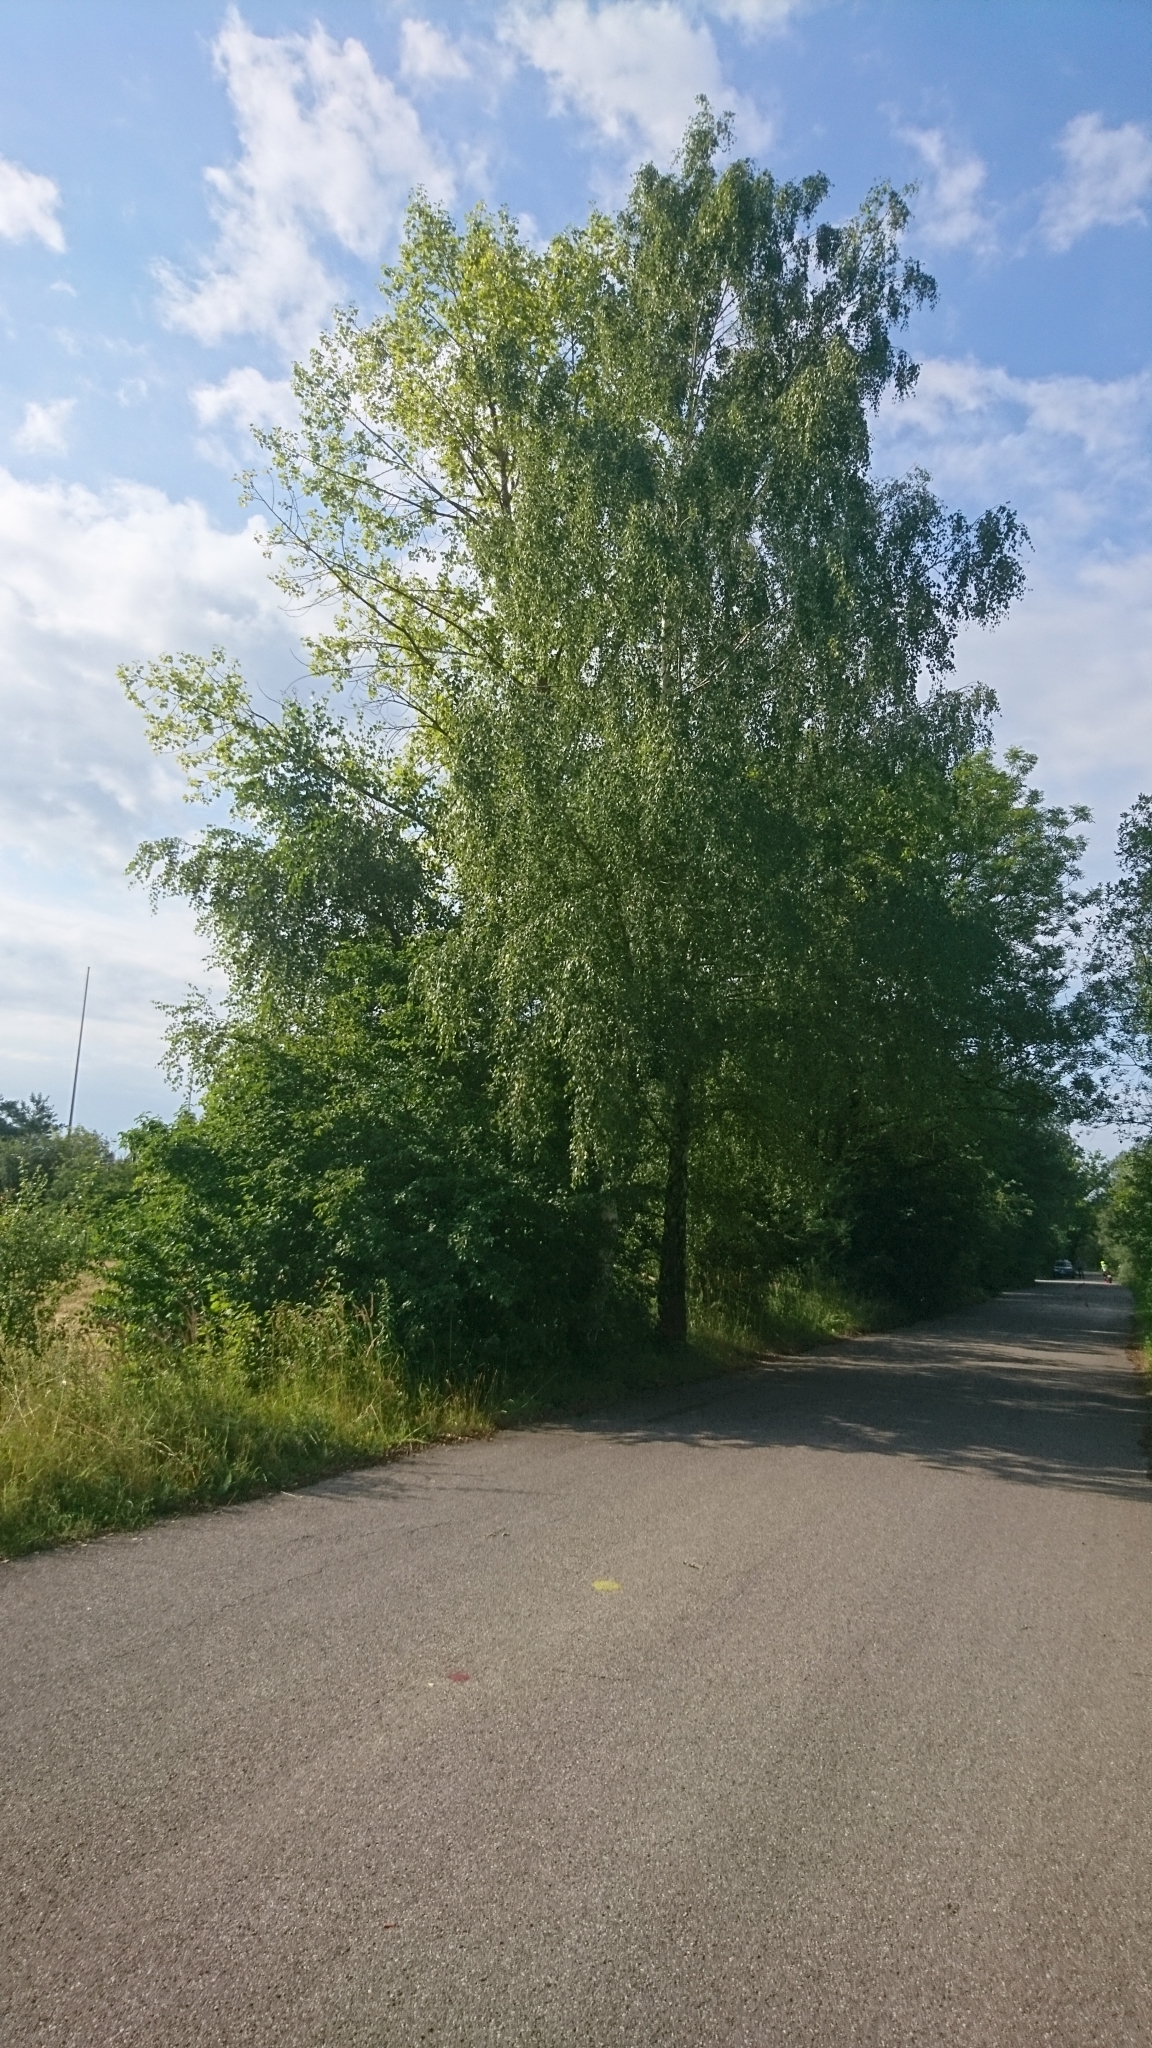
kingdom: Plantae
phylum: Tracheophyta
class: Magnoliopsida
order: Fagales
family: Betulaceae
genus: Betula
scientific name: Betula pendula
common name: Silver birch
